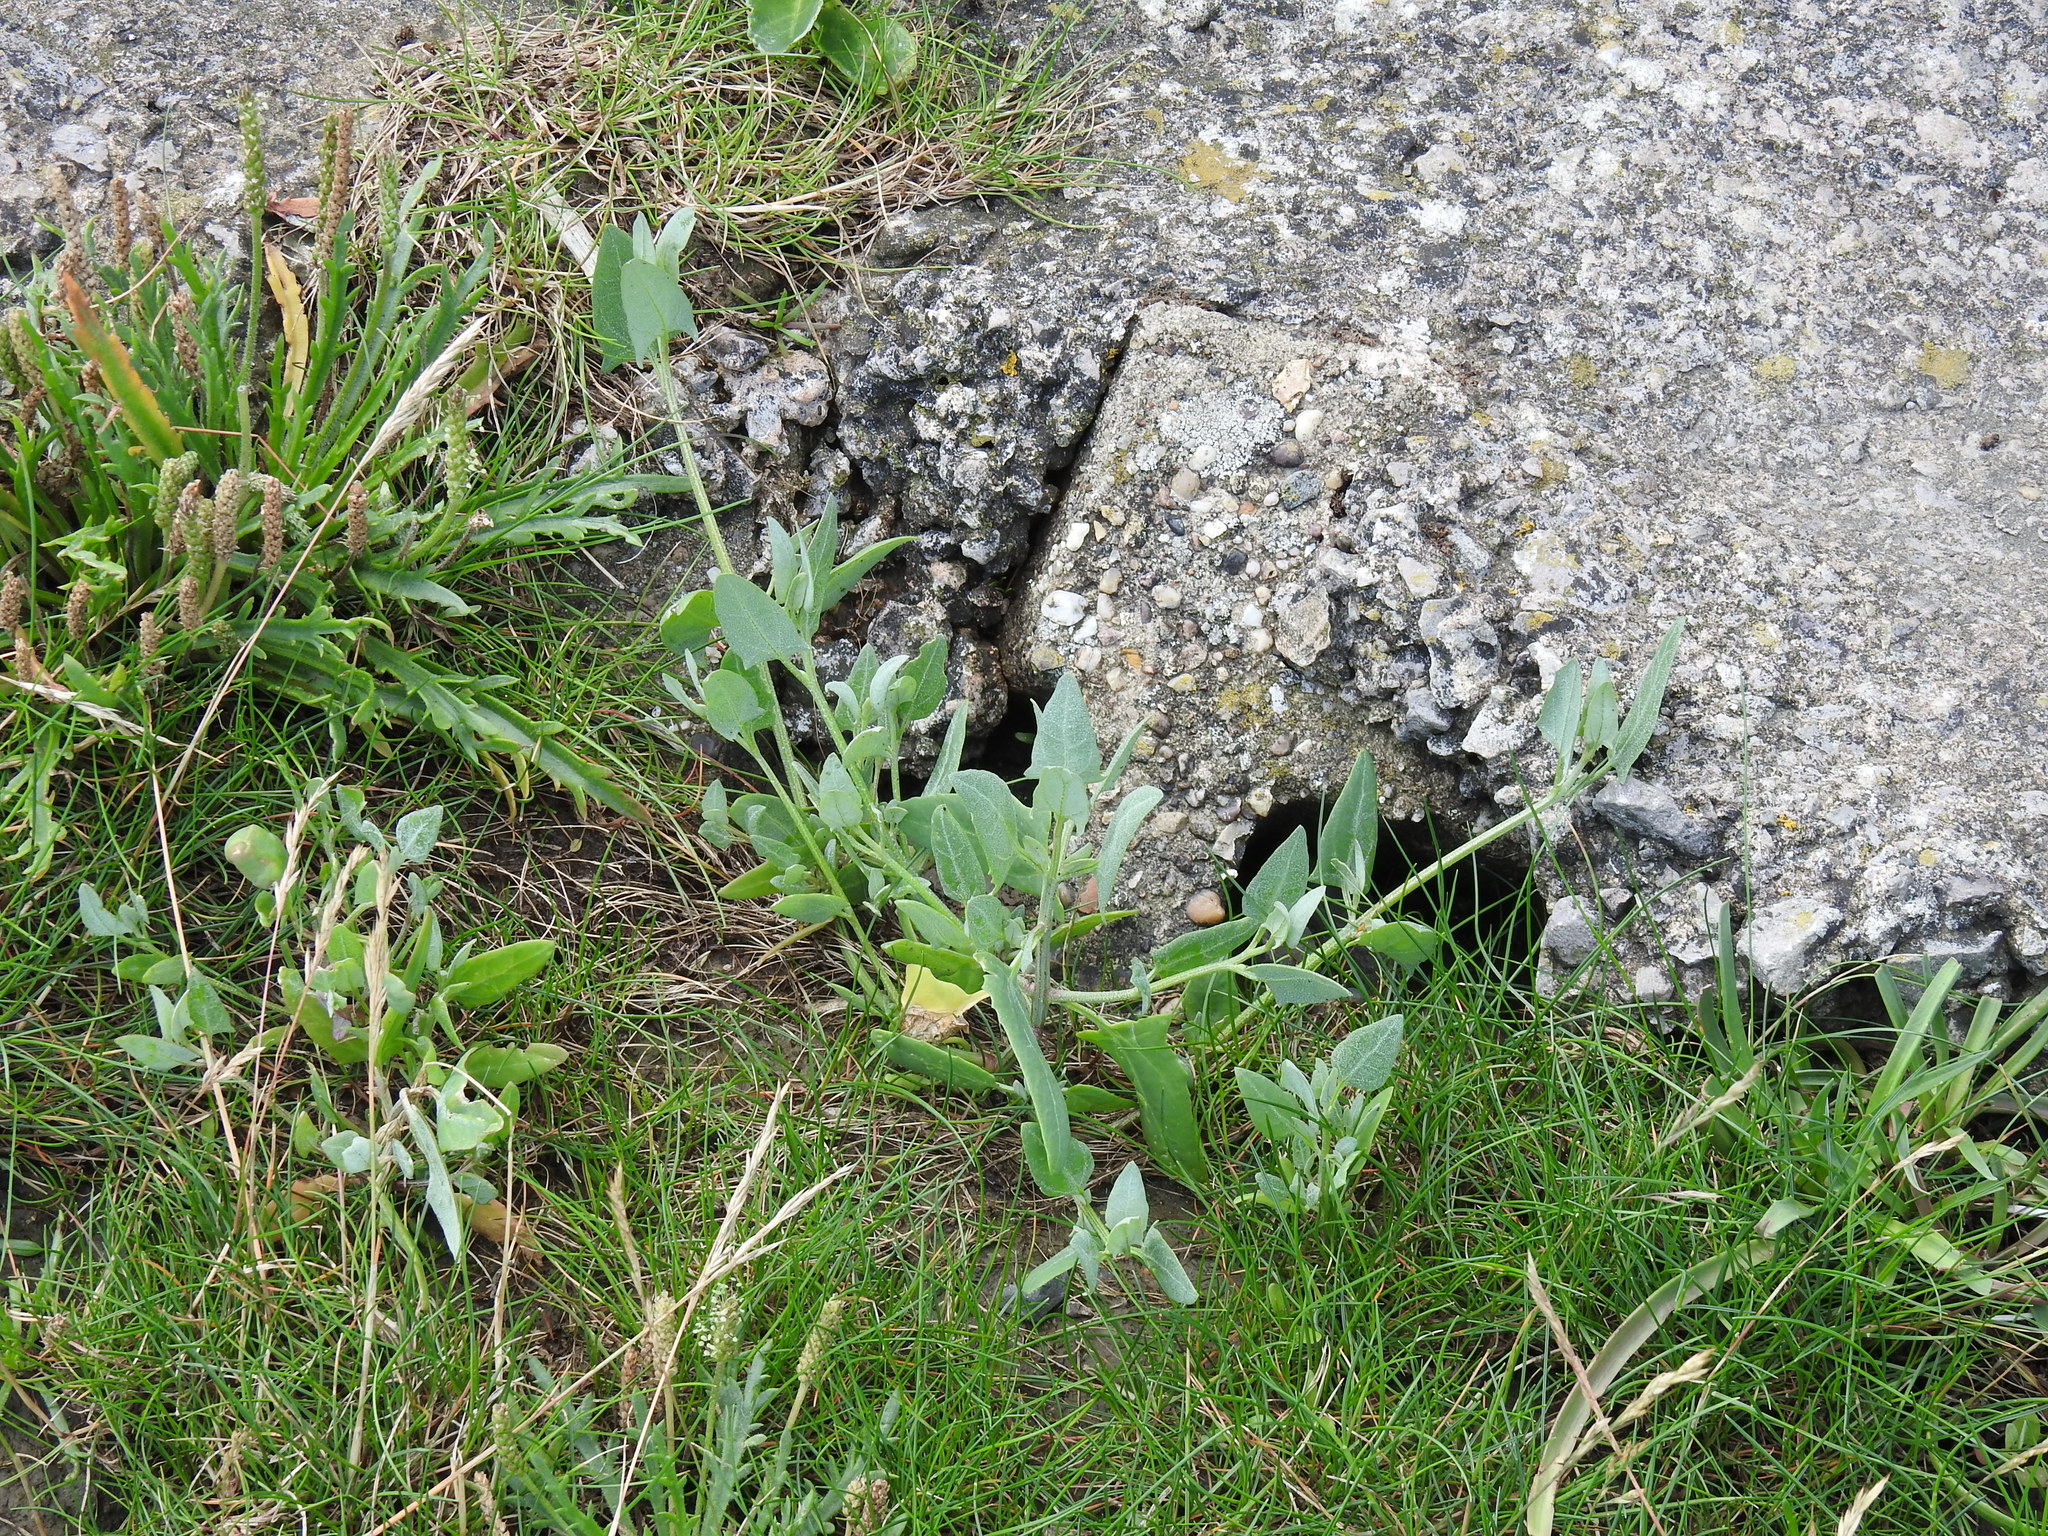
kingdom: Plantae
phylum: Tracheophyta
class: Magnoliopsida
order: Caryophyllales
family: Amaranthaceae
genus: Atriplex
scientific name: Atriplex prostrata
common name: Spear-leaved orache
